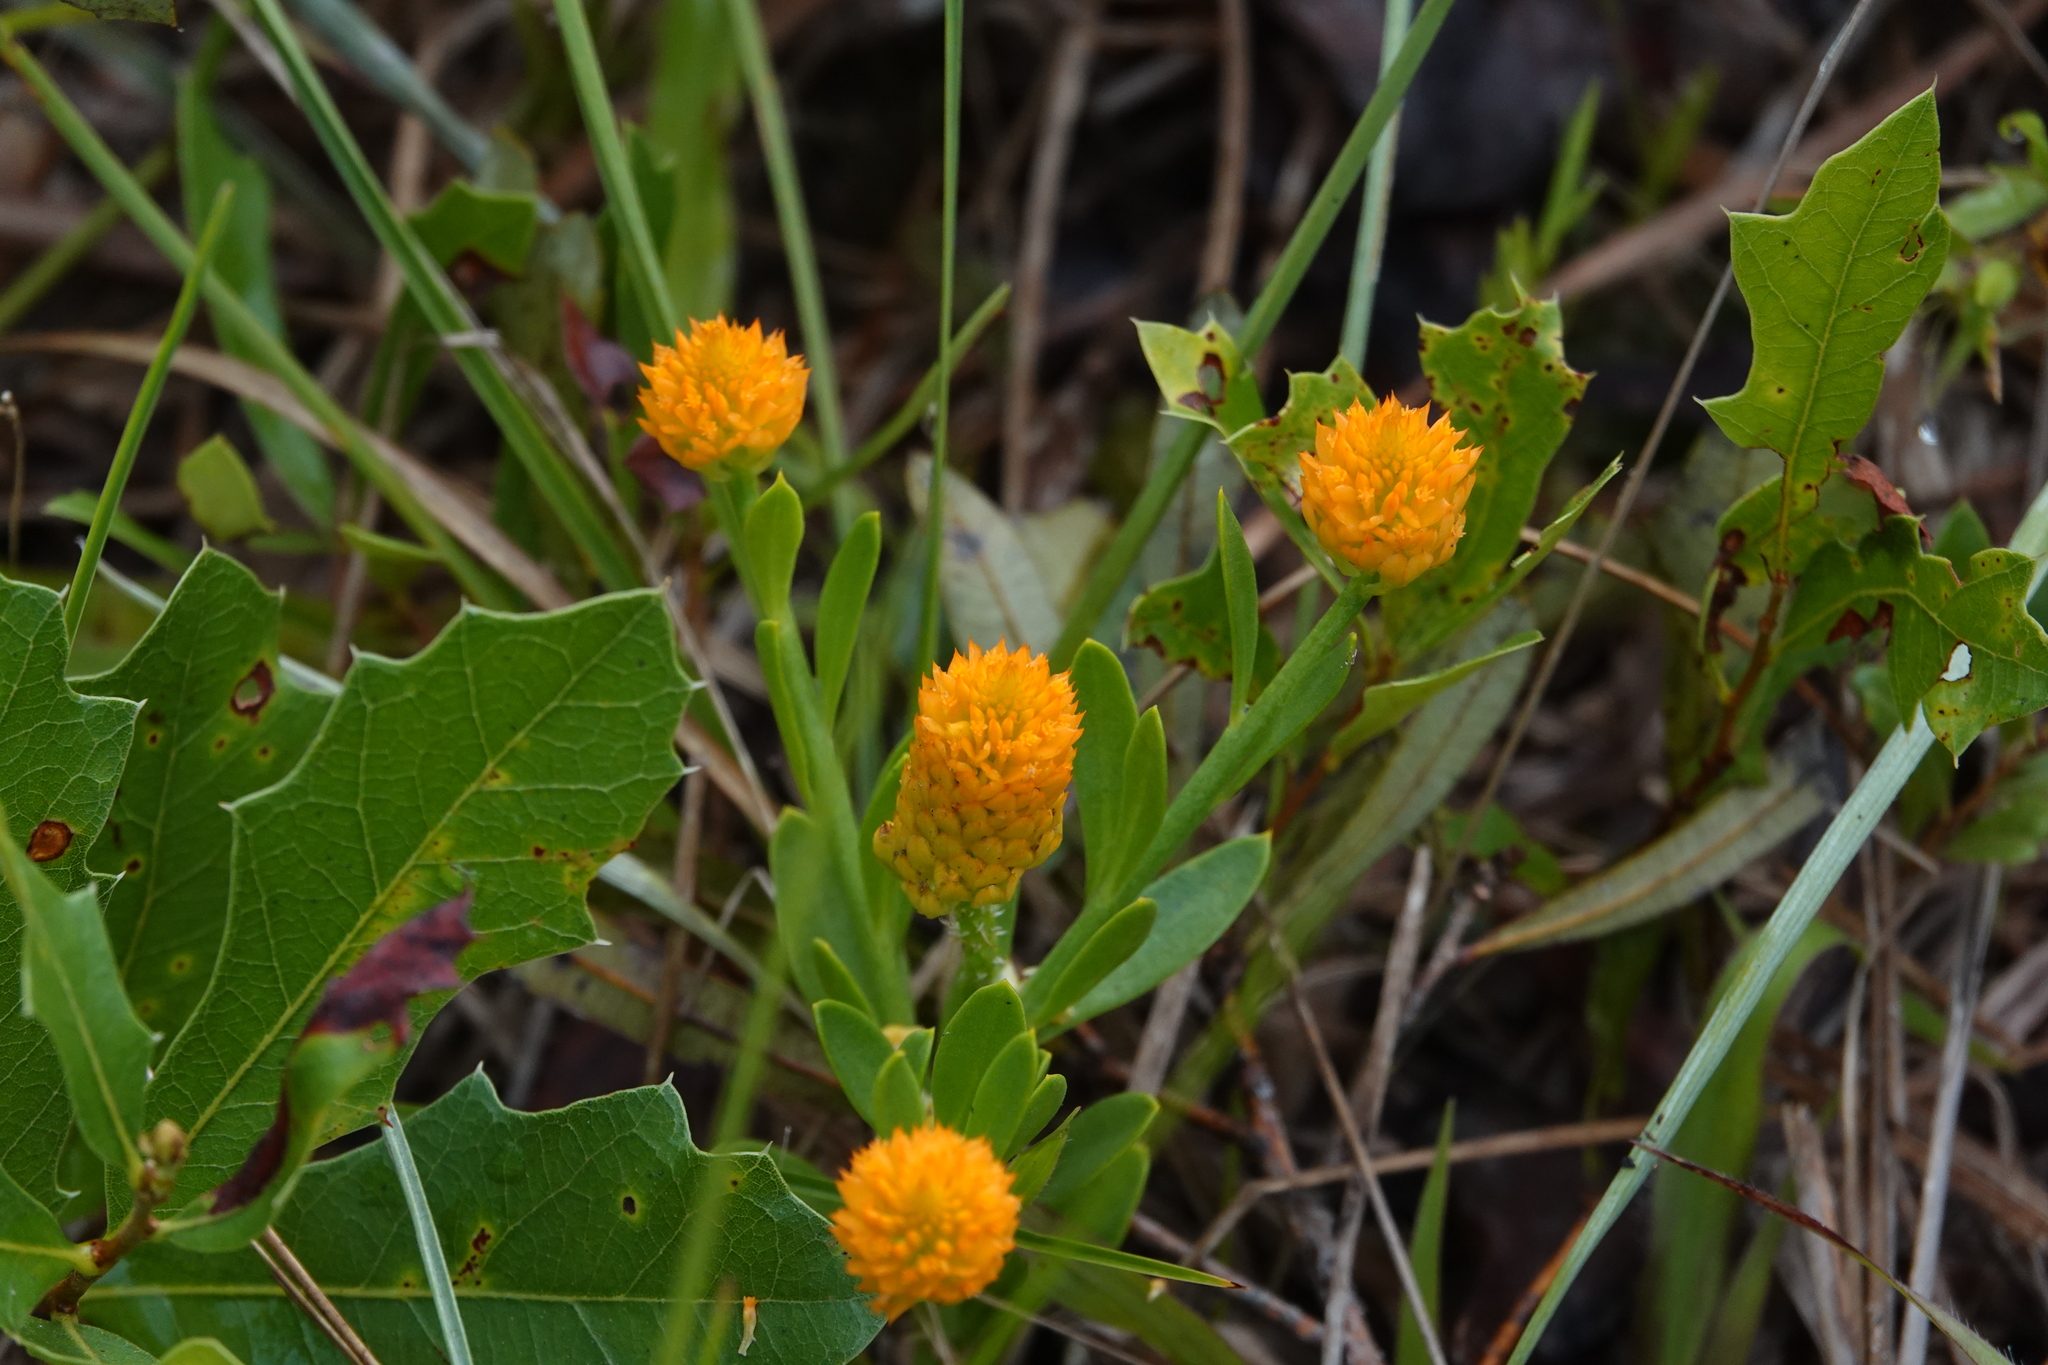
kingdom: Plantae
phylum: Tracheophyta
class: Magnoliopsida
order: Fabales
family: Polygalaceae
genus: Polygala
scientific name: Polygala lutea
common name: Orange milkwort
